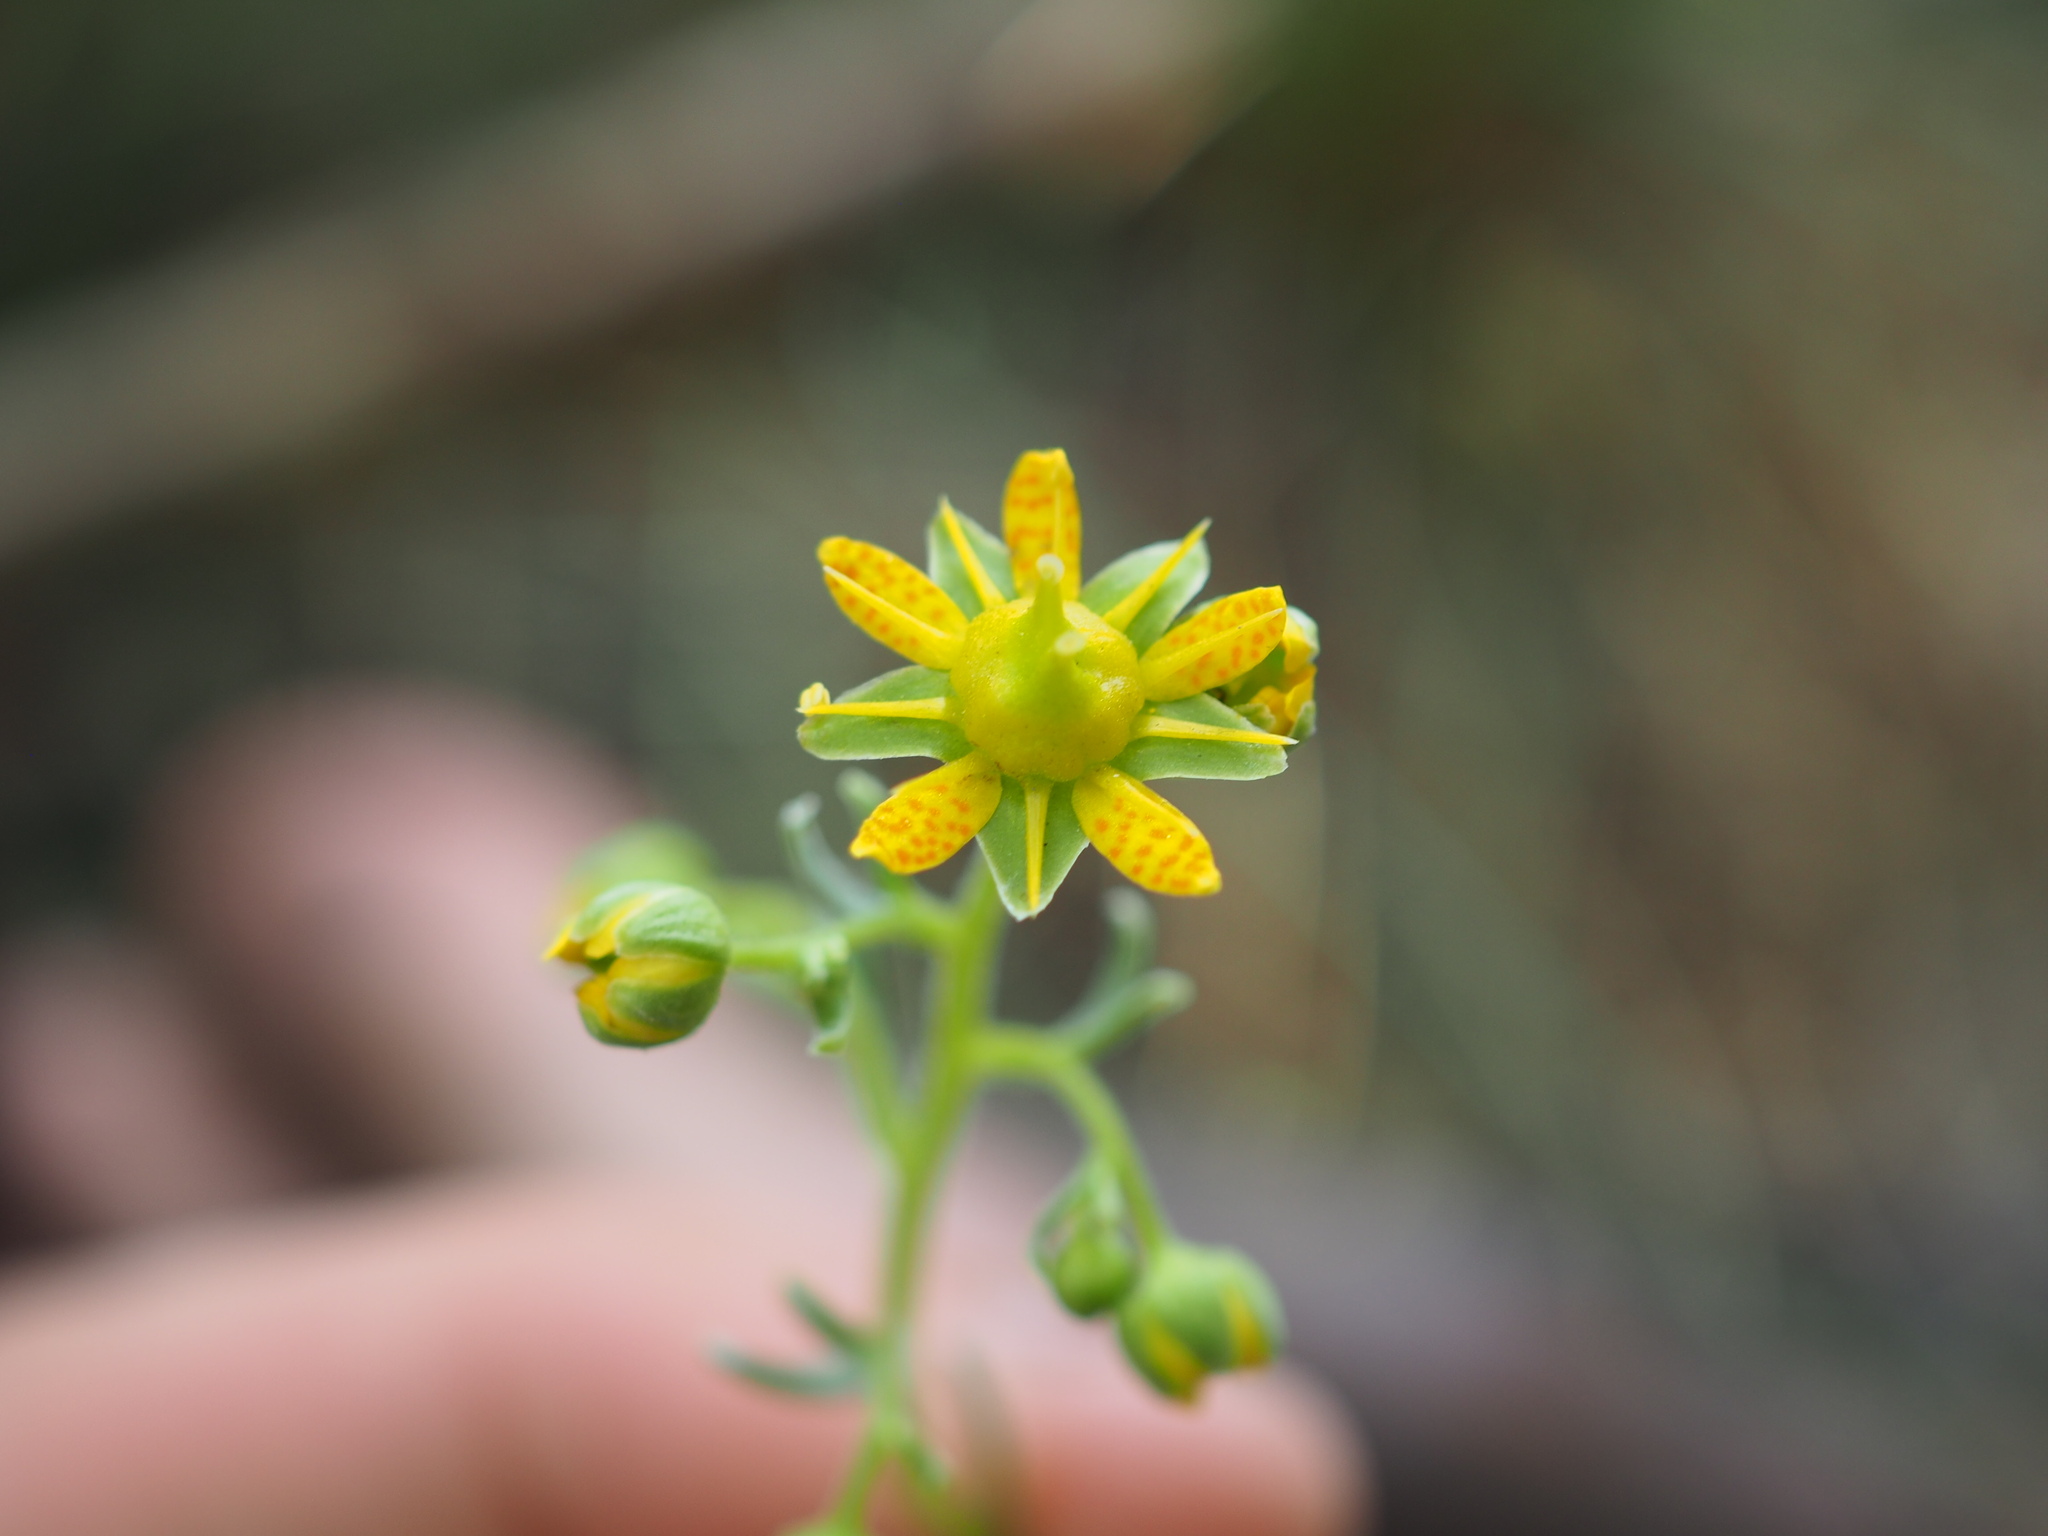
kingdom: Plantae
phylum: Tracheophyta
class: Magnoliopsida
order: Saxifragales
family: Saxifragaceae
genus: Saxifraga
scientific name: Saxifraga aizoides
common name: Yellow mountain saxifrage
